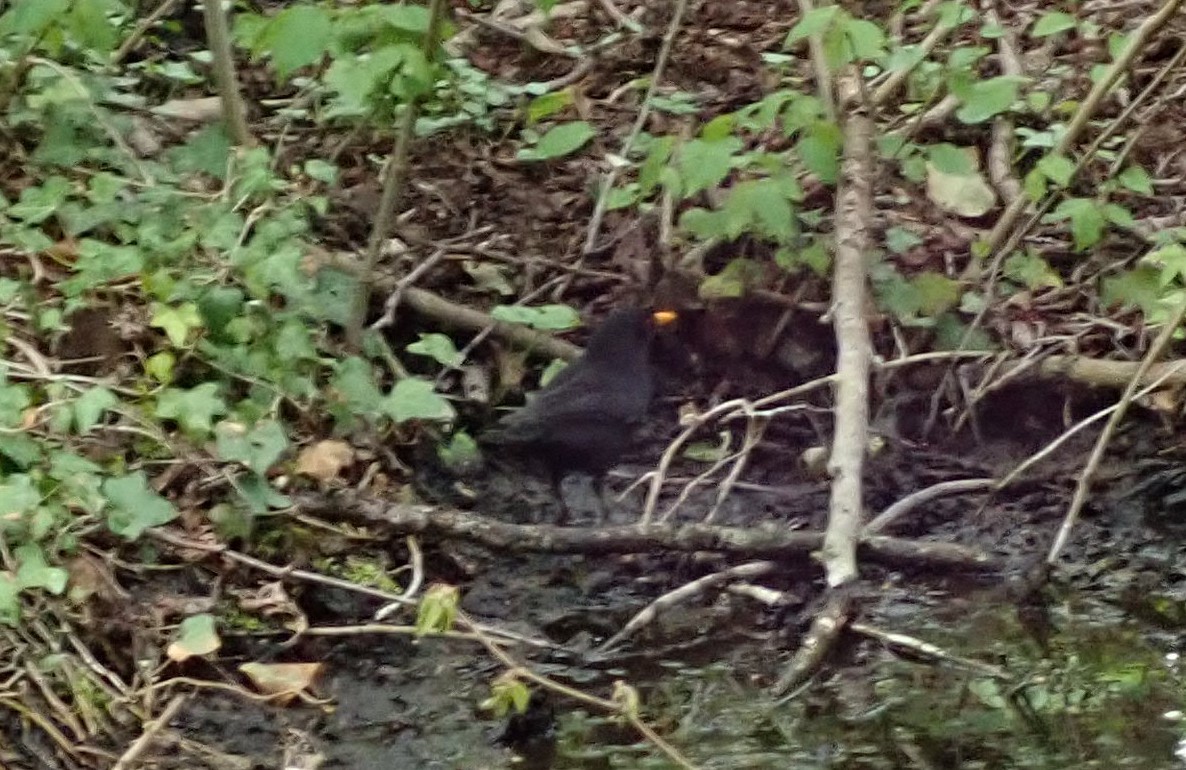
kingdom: Animalia
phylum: Chordata
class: Aves
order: Passeriformes
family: Turdidae
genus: Turdus
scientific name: Turdus merula
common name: Common blackbird
